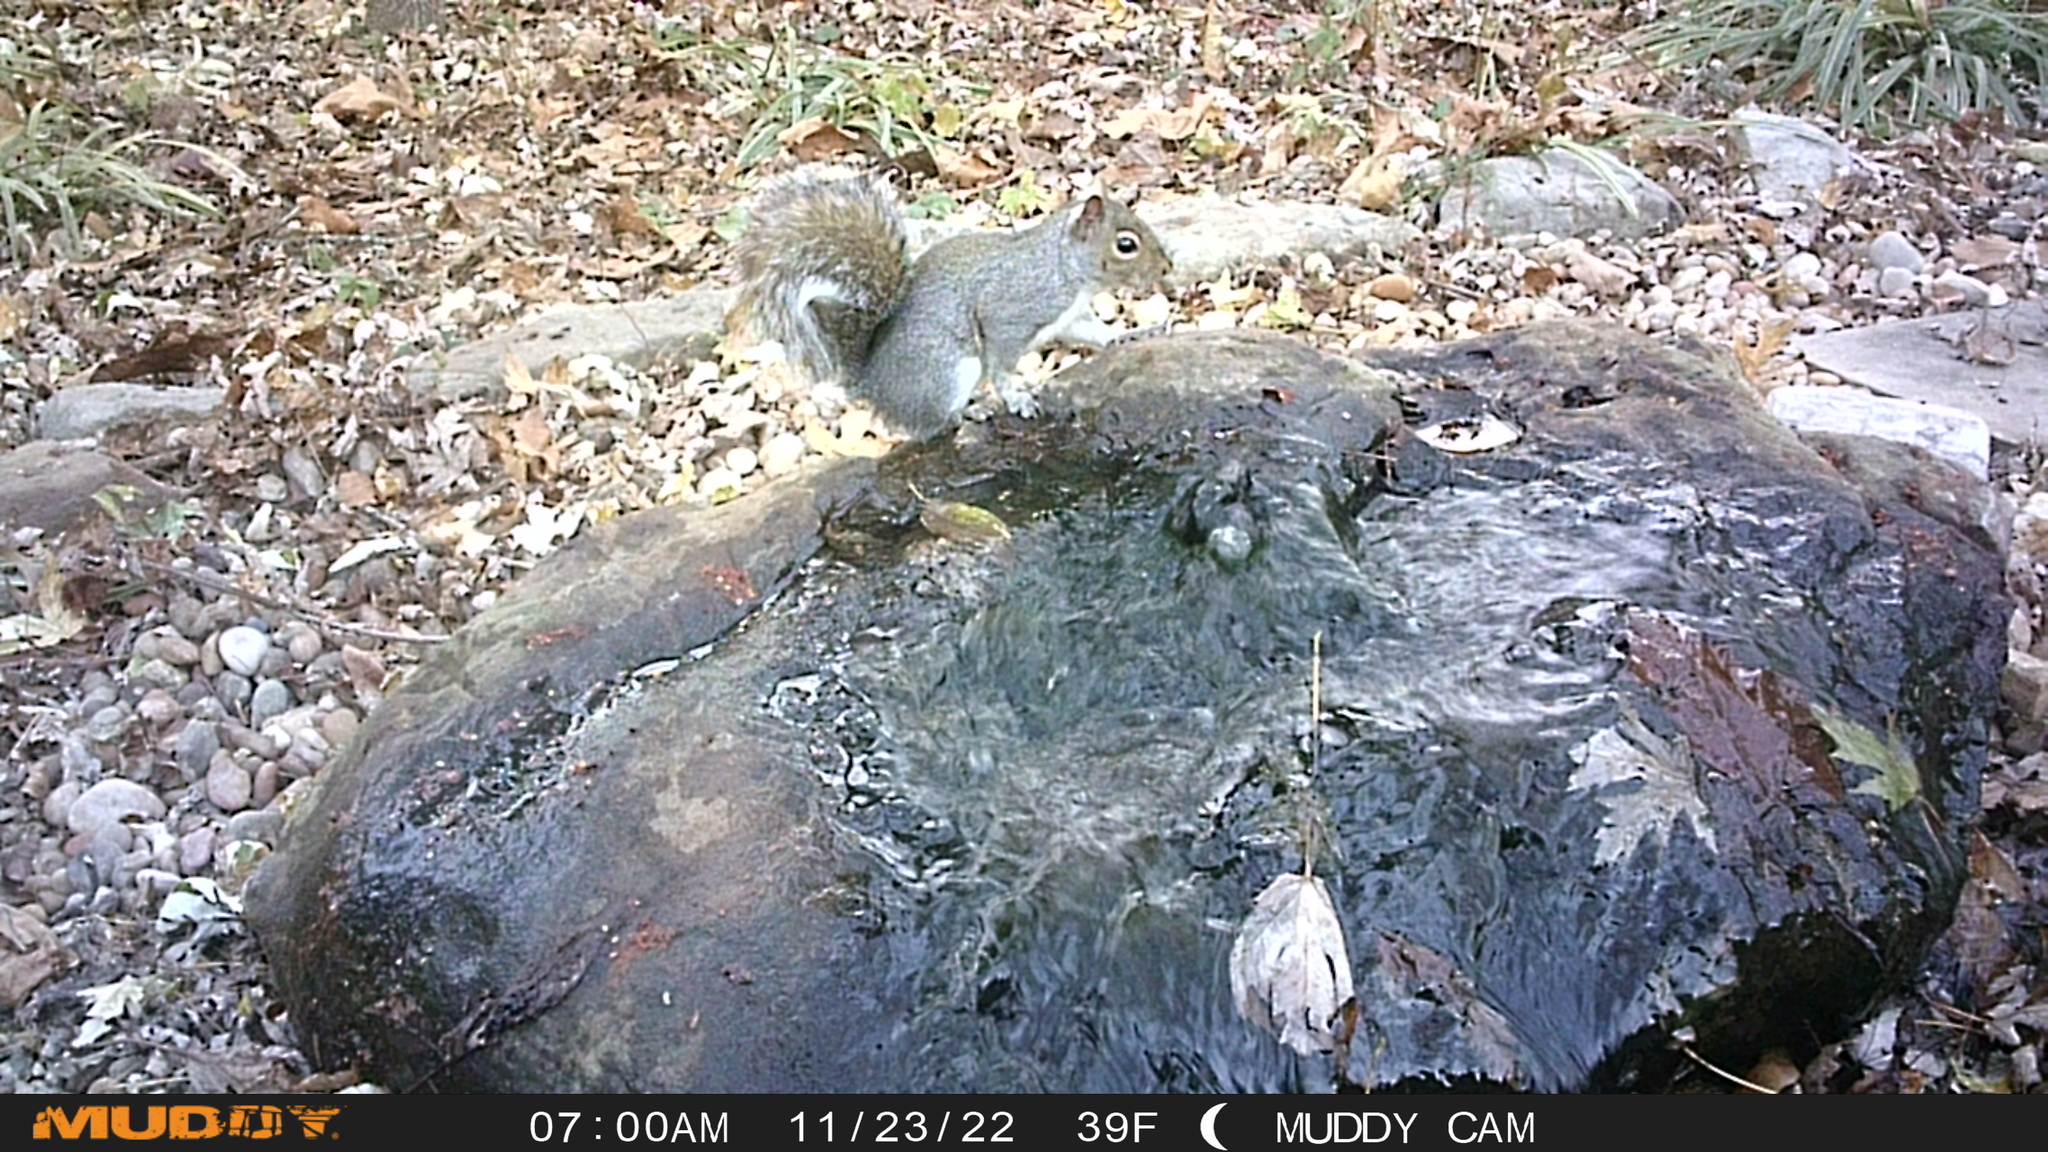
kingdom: Animalia
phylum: Chordata
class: Mammalia
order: Rodentia
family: Sciuridae
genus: Sciurus
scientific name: Sciurus carolinensis
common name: Eastern gray squirrel
